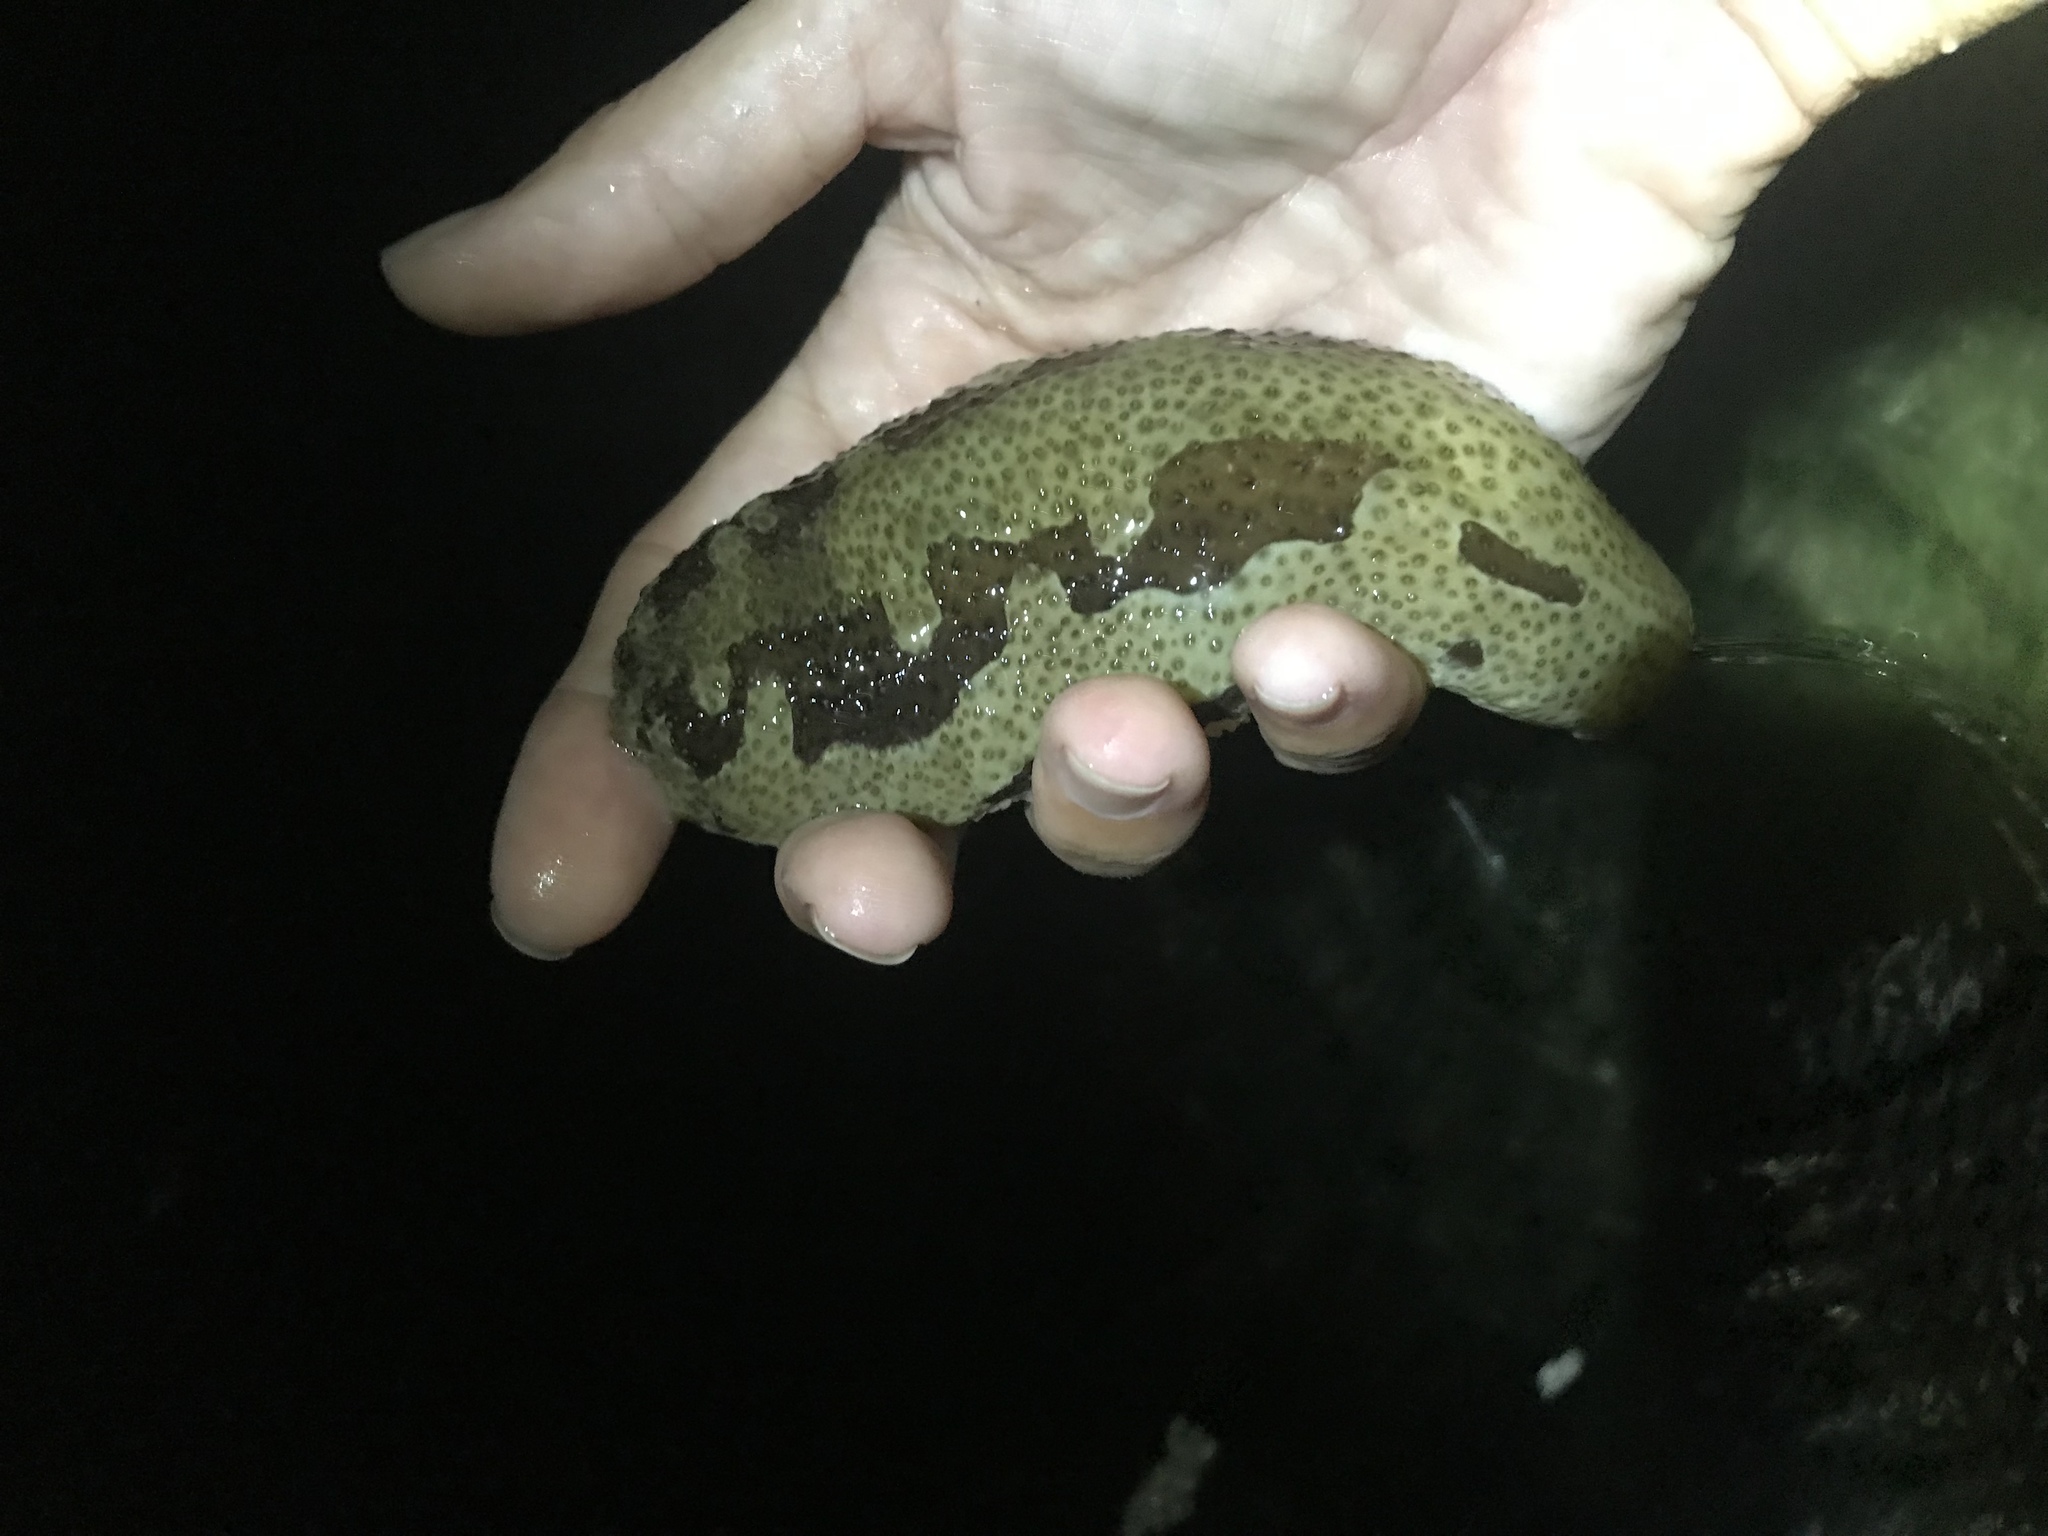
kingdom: Animalia
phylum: Echinodermata
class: Holothuroidea
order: Holothuriida
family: Holothuriidae
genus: Bohadschia
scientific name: Bohadschia marmorata
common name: Brown sandfish
